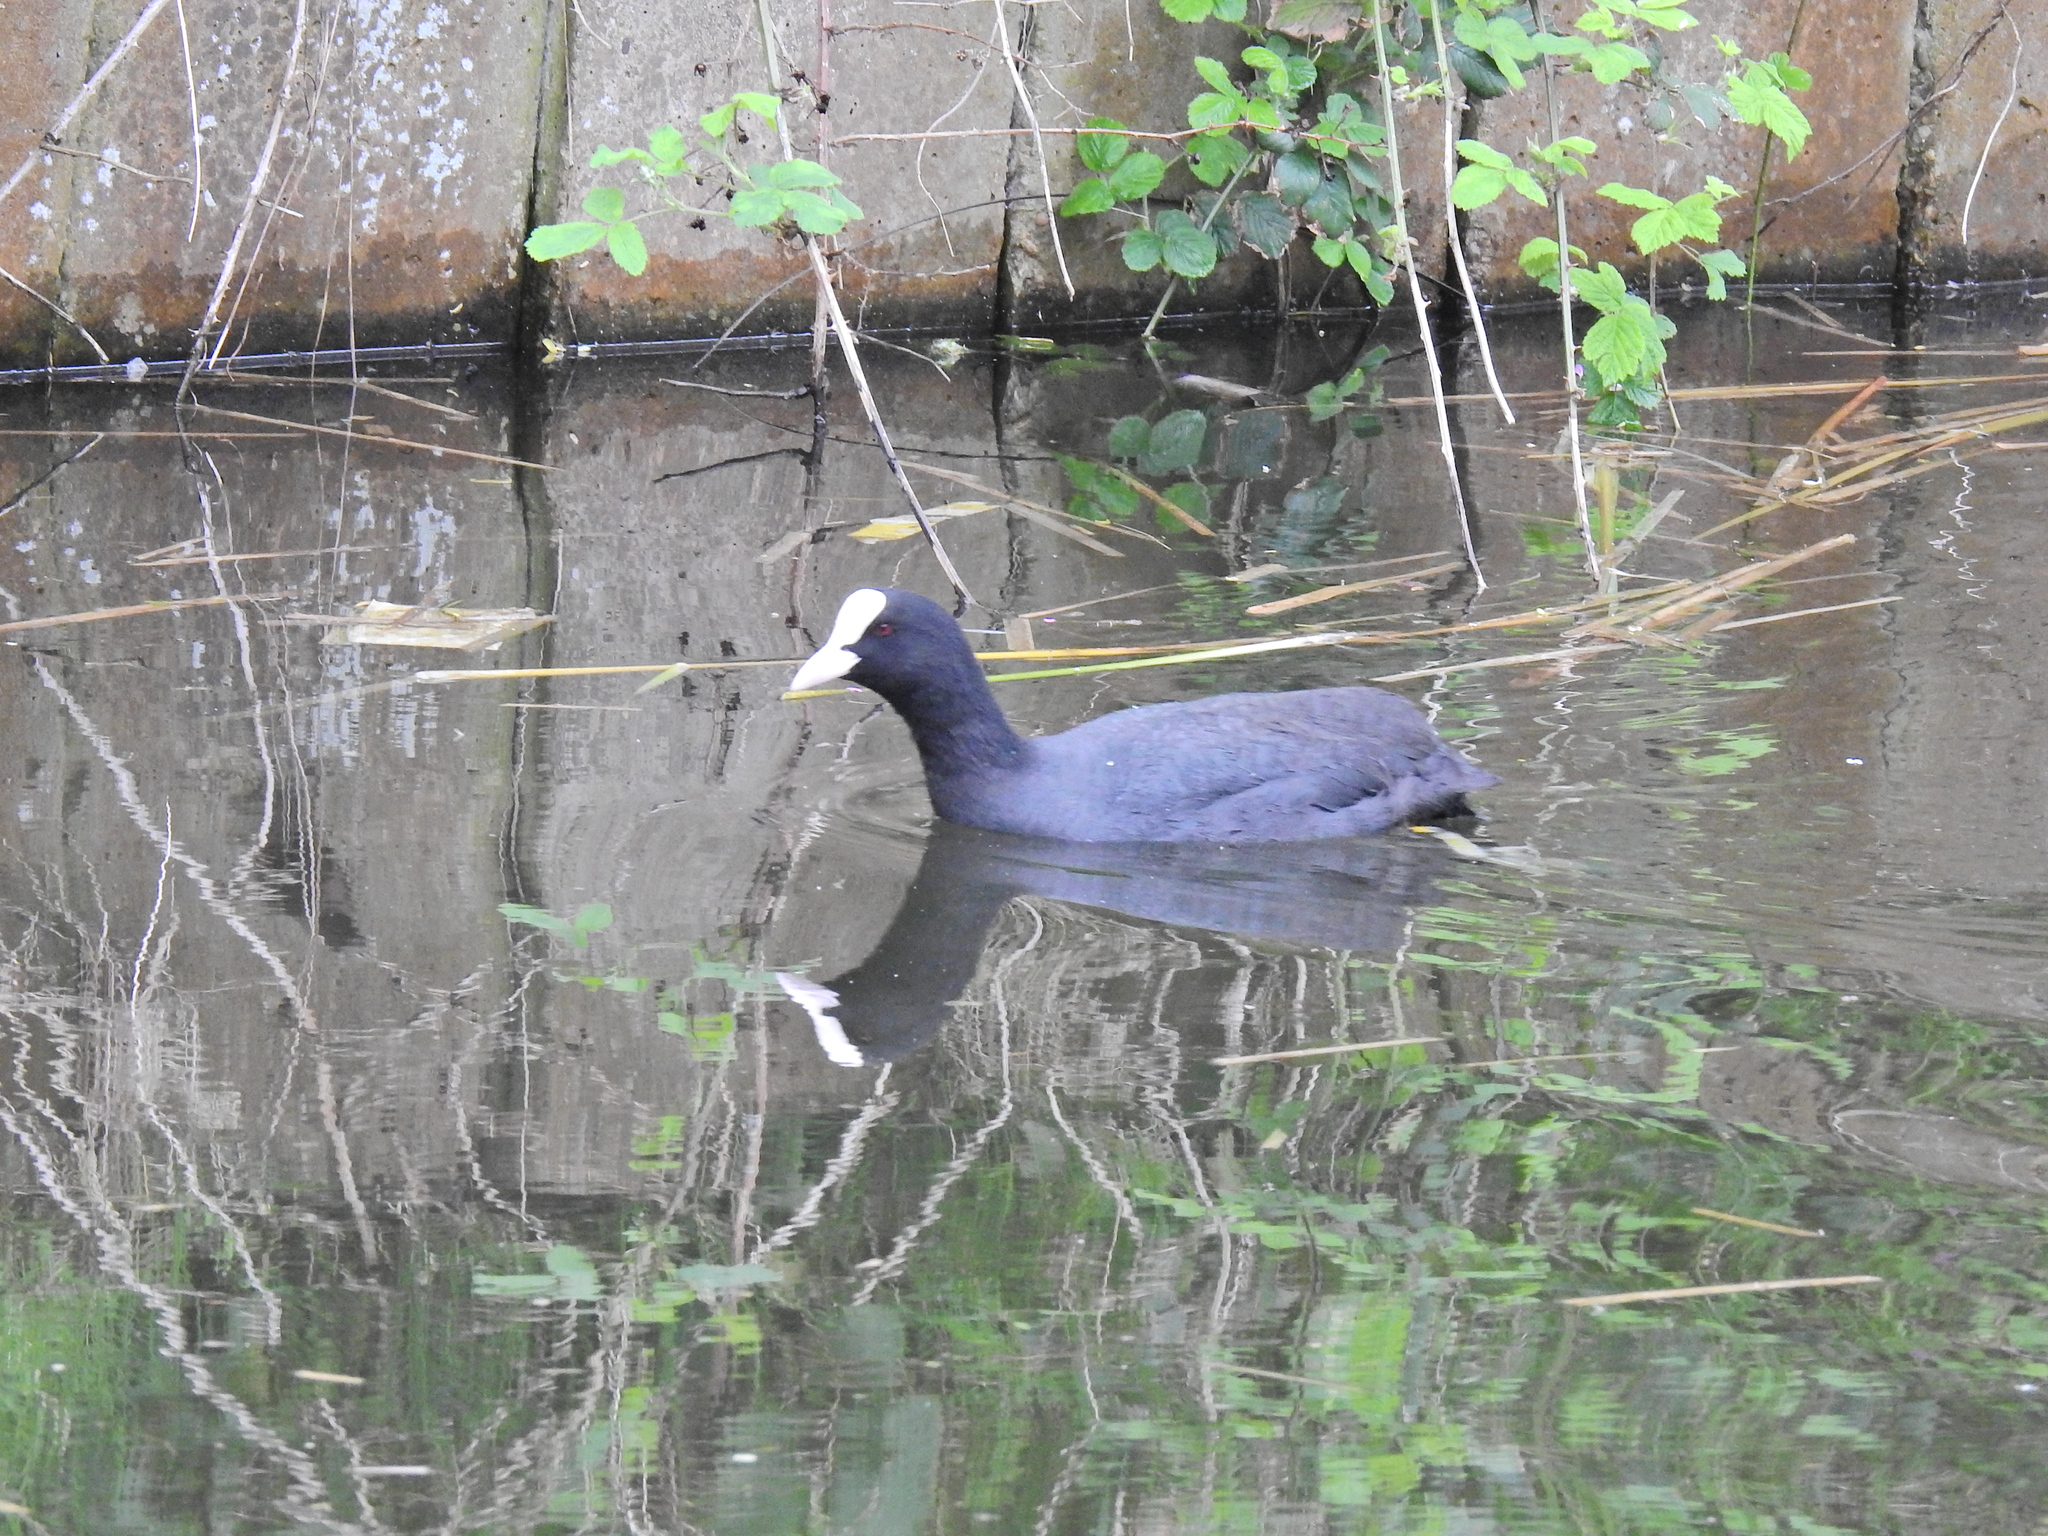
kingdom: Animalia
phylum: Chordata
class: Aves
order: Gruiformes
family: Rallidae
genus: Fulica
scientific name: Fulica atra
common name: Eurasian coot
